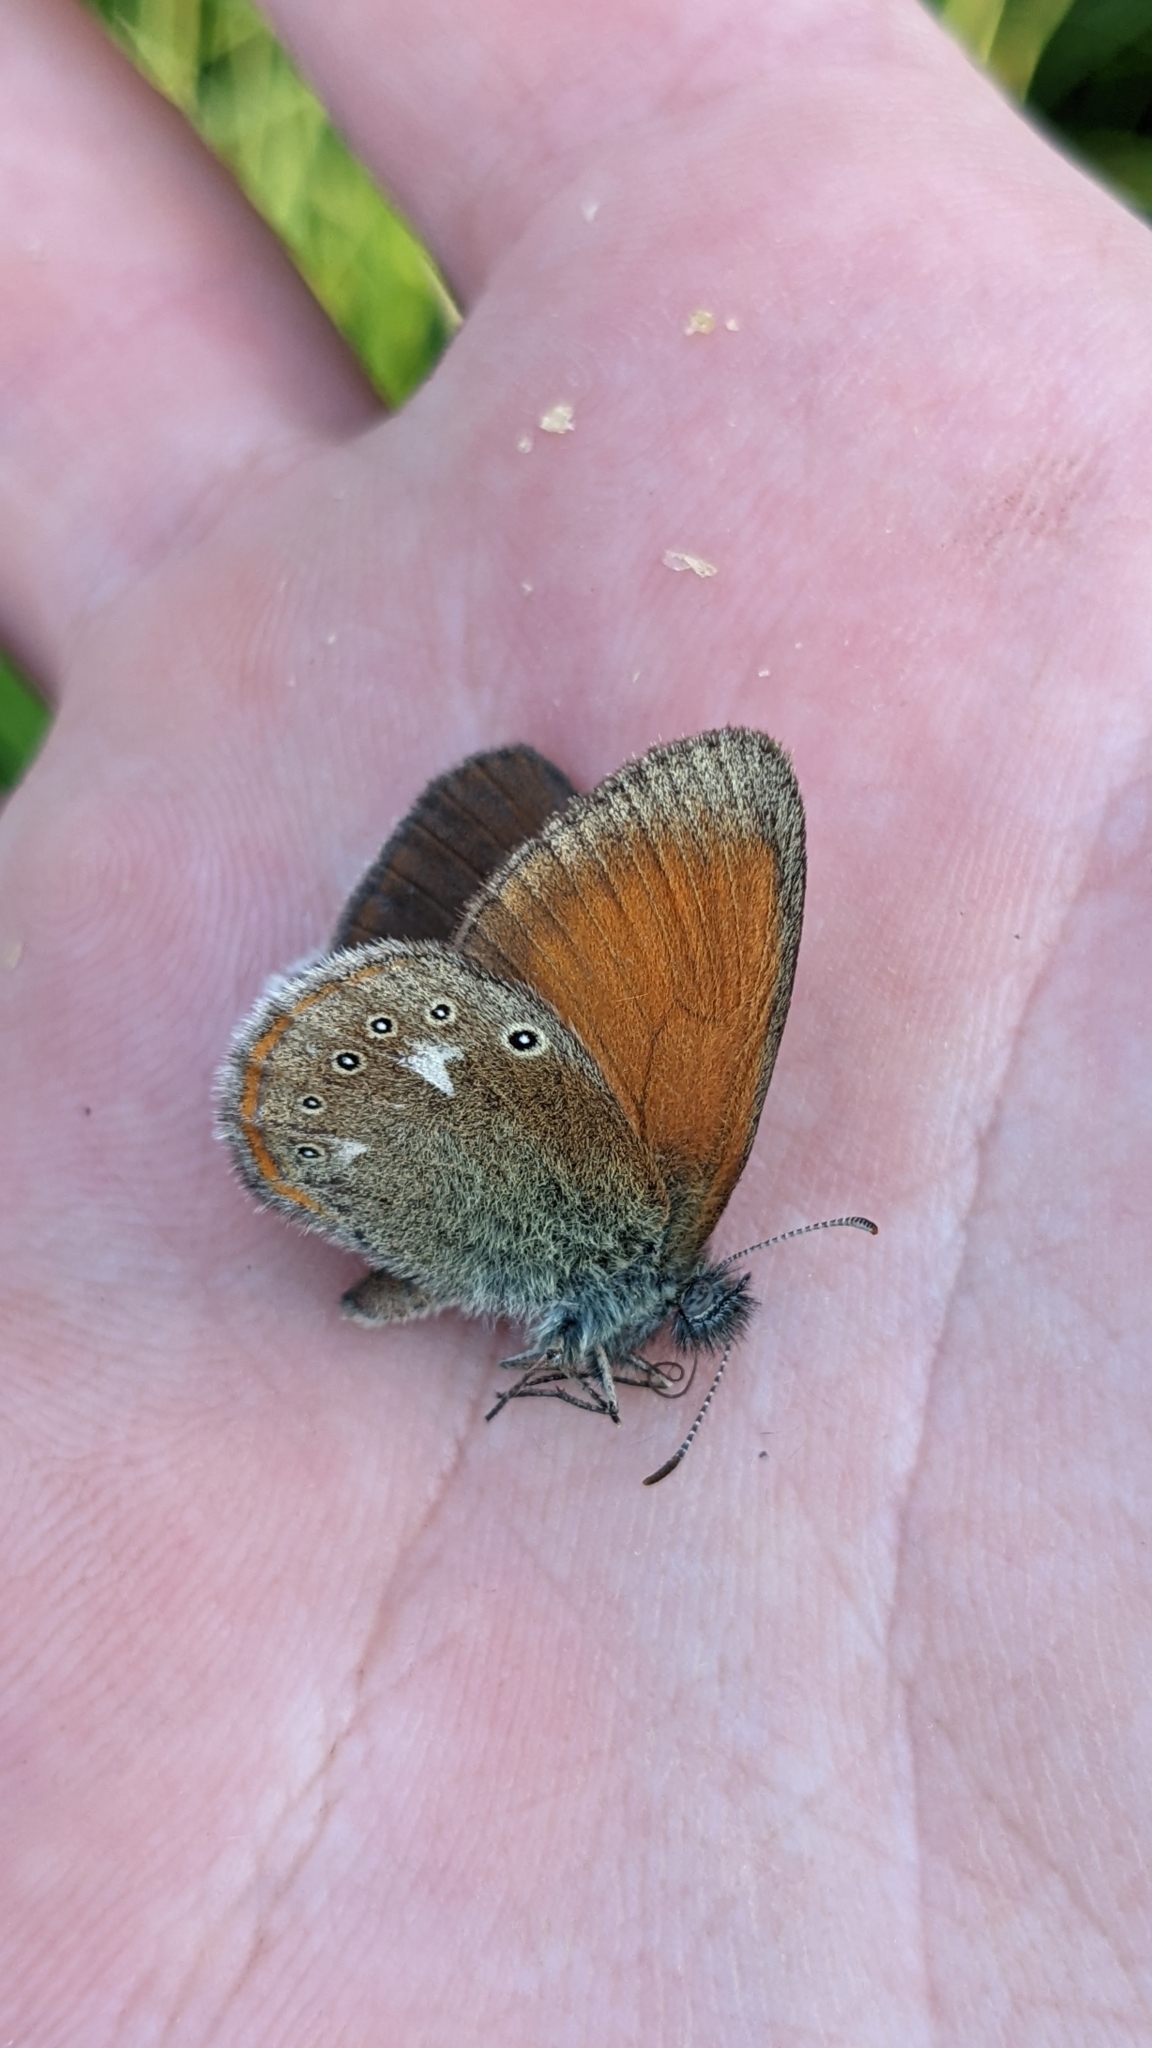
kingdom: Animalia
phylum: Arthropoda
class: Insecta
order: Lepidoptera
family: Nymphalidae
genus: Coenonympha
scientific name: Coenonympha iphis
